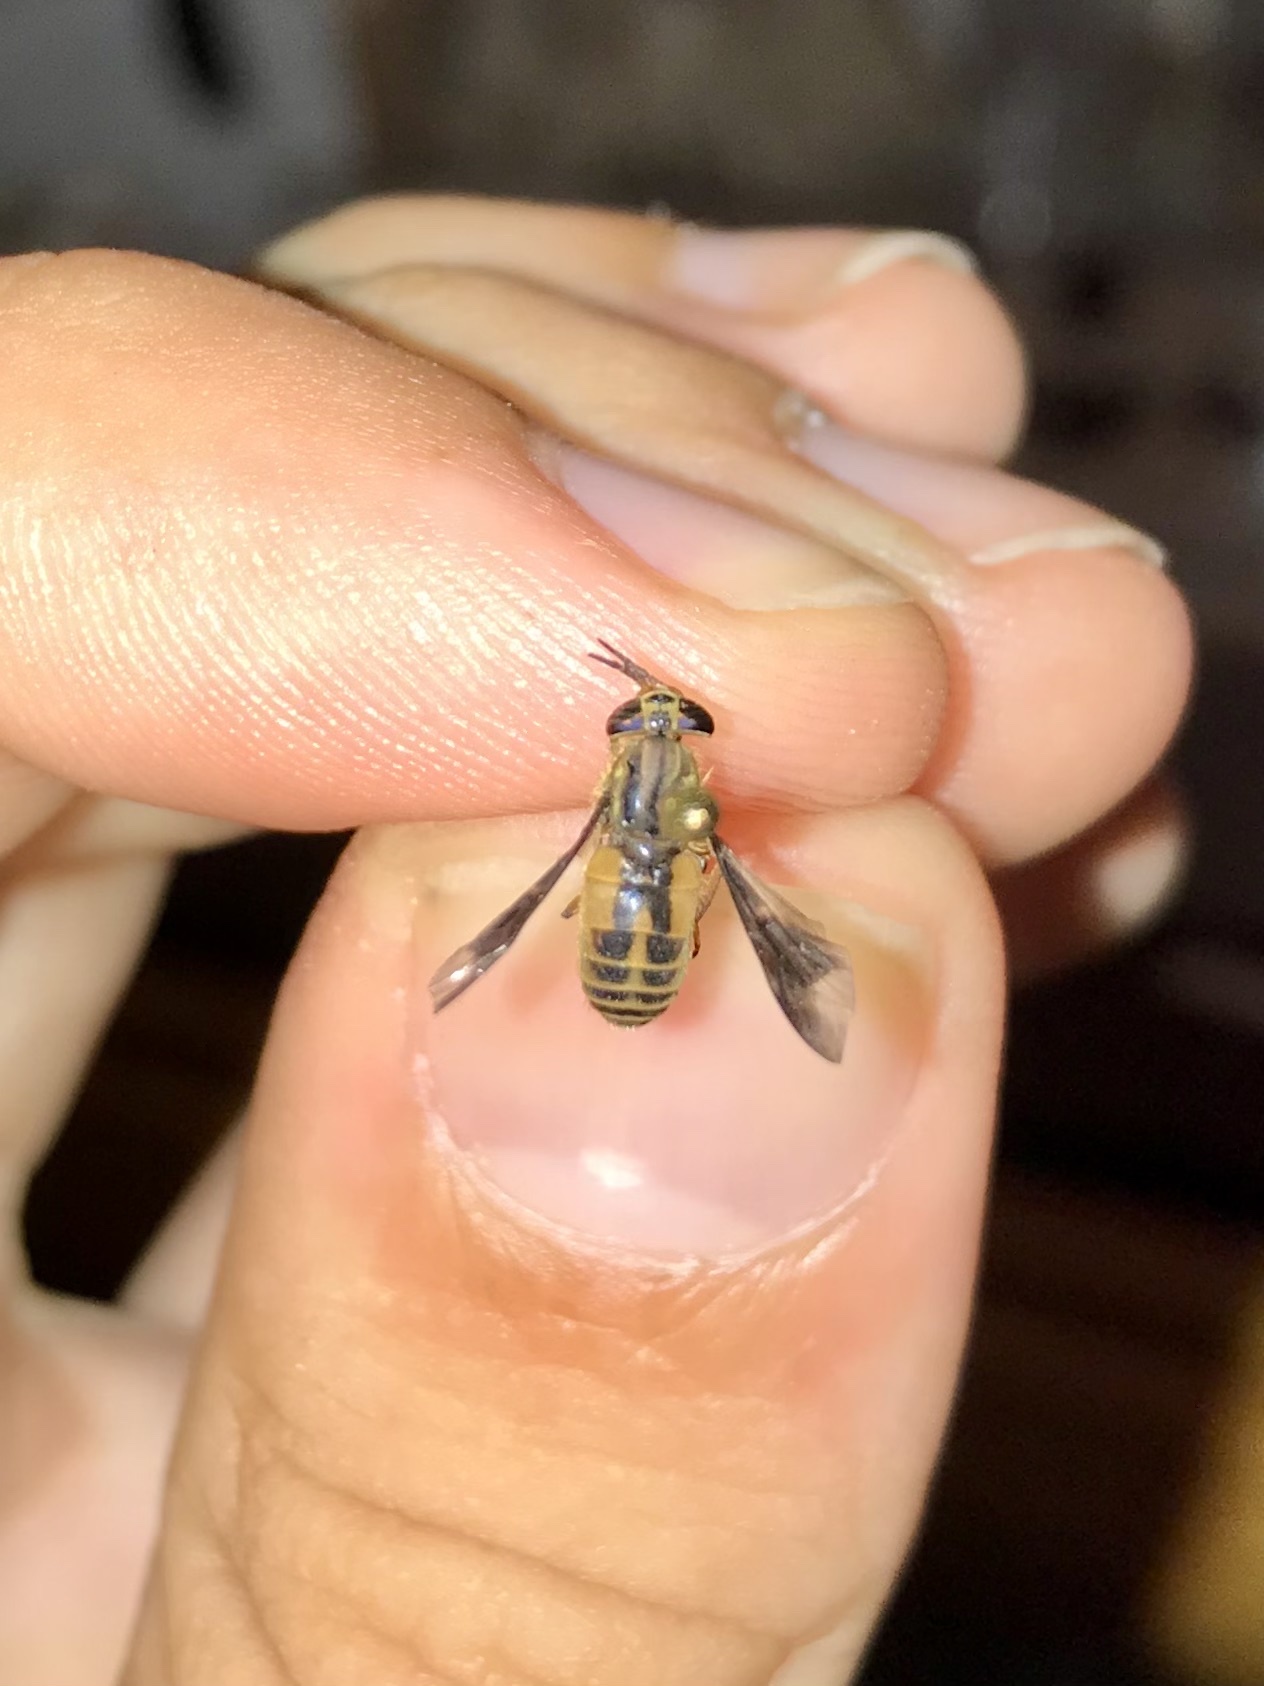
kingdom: Animalia
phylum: Arthropoda
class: Insecta
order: Diptera
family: Tabanidae
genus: Chrysops
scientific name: Chrysops indus
